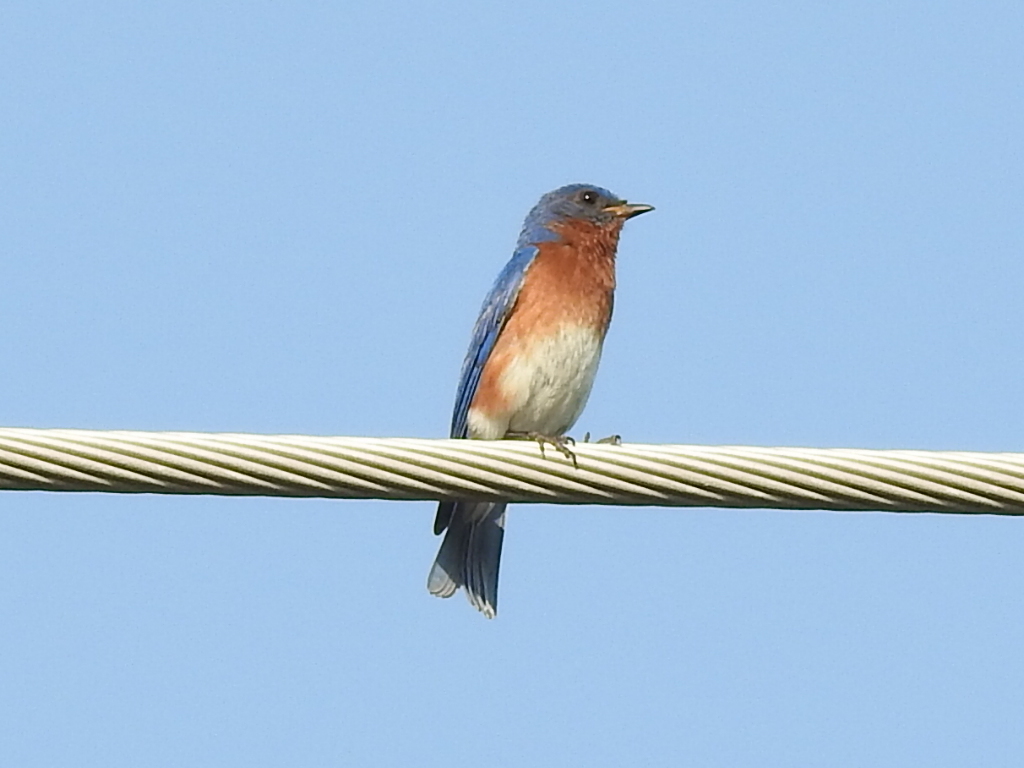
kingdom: Animalia
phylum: Chordata
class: Aves
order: Passeriformes
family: Turdidae
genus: Sialia
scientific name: Sialia sialis
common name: Eastern bluebird
